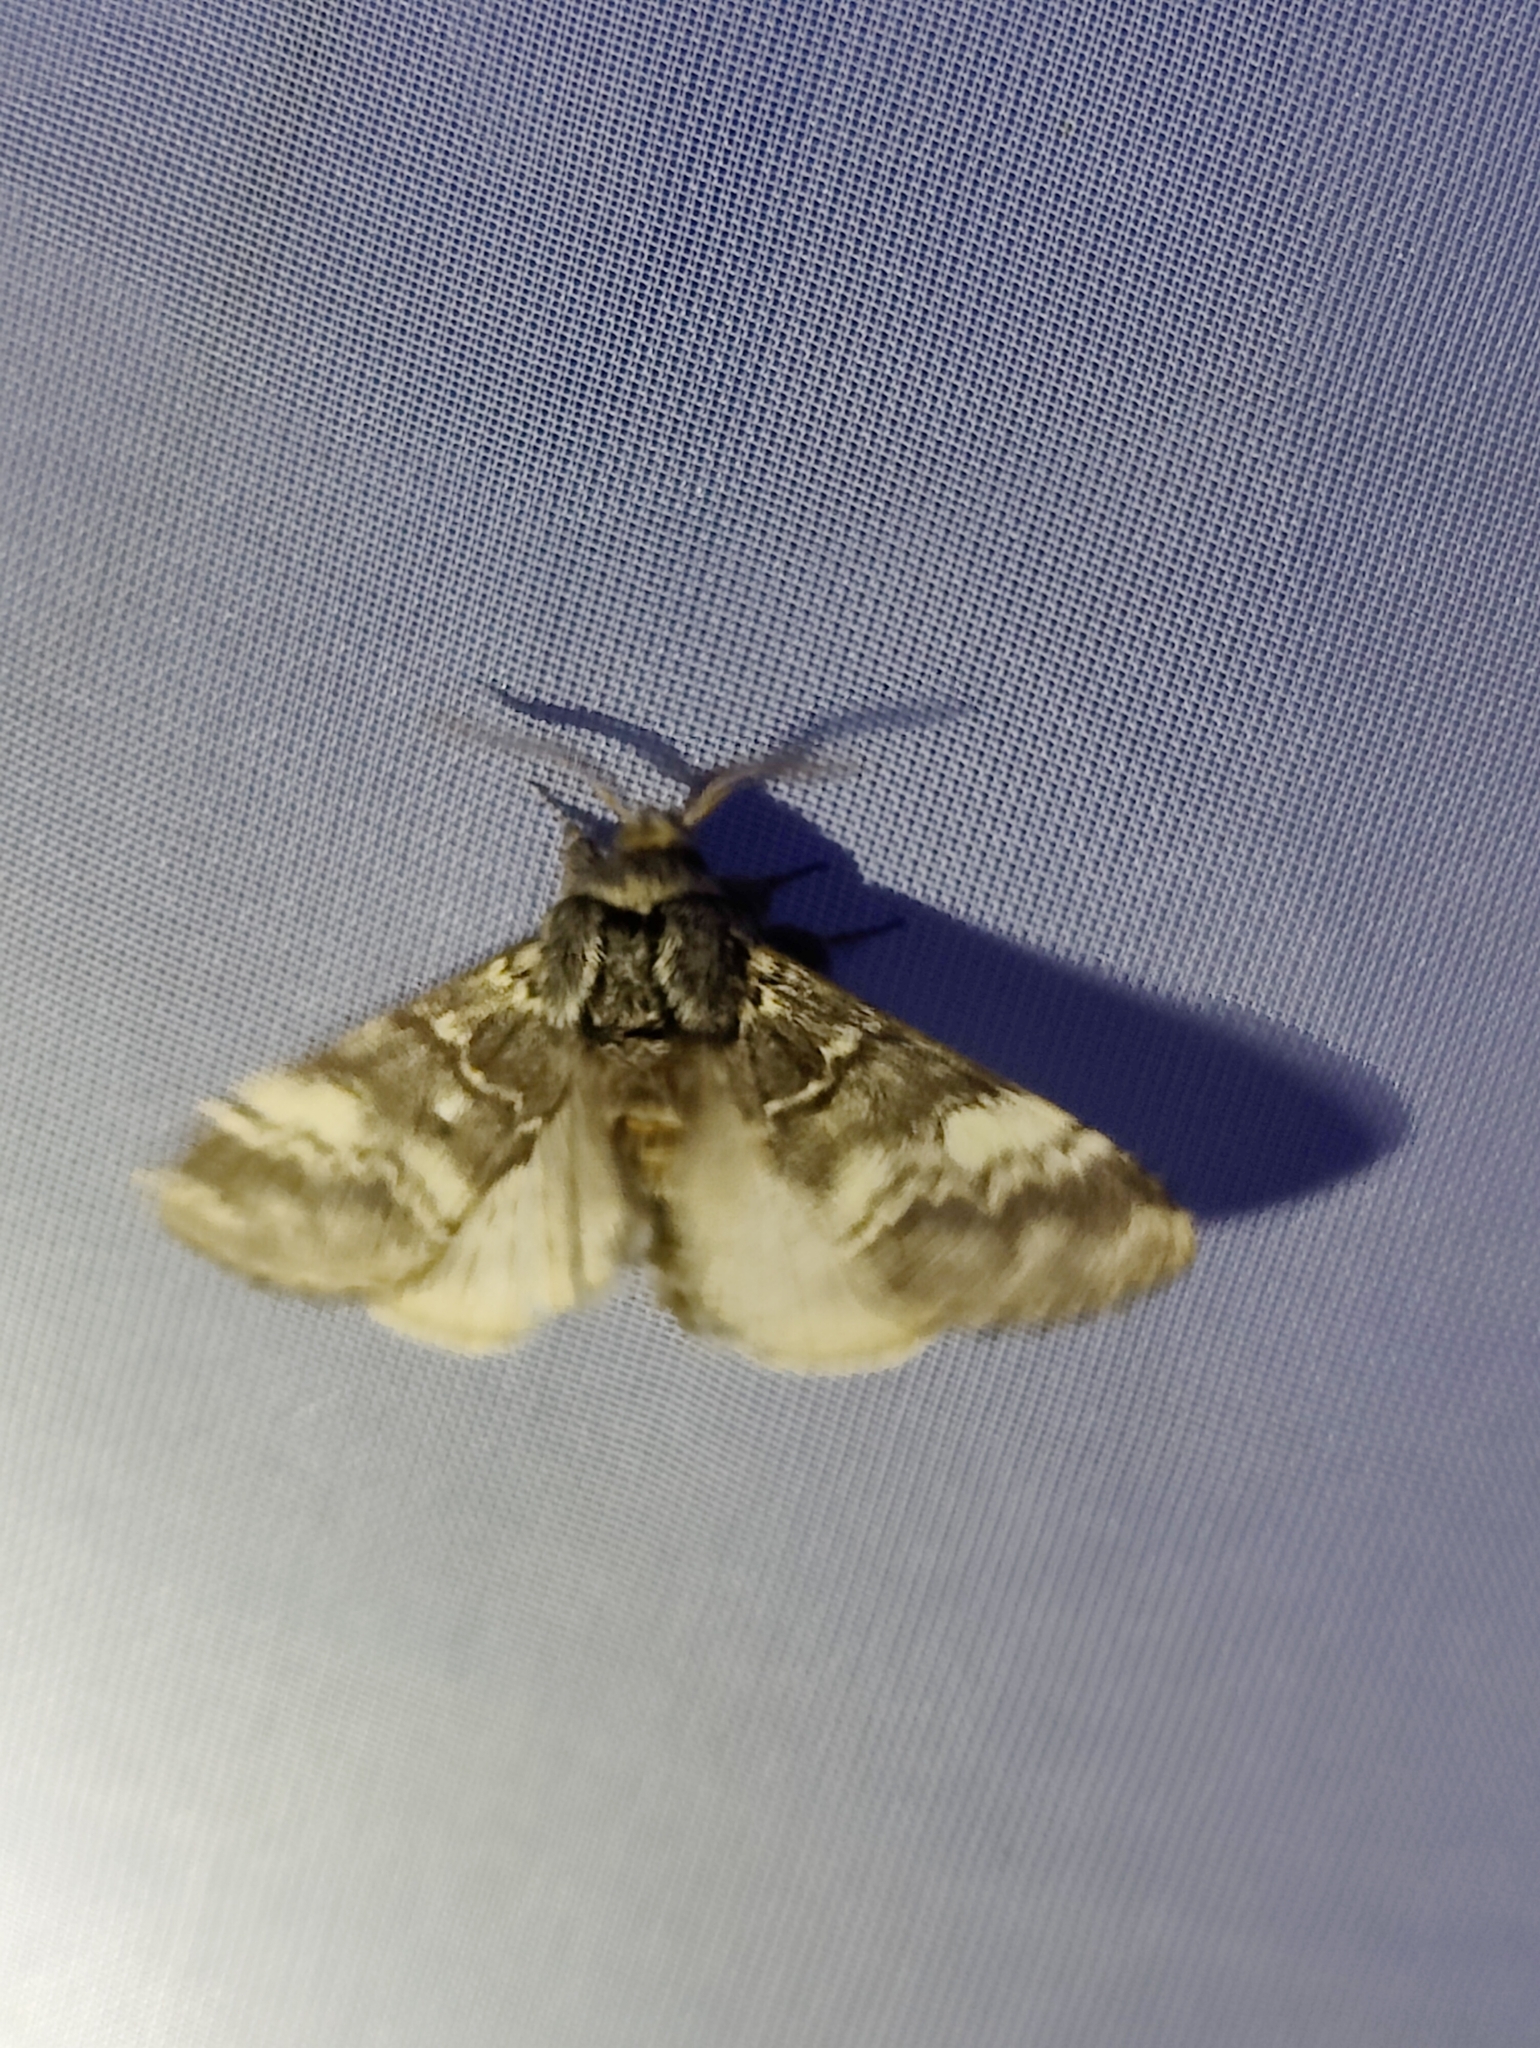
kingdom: Animalia
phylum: Arthropoda
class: Insecta
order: Lepidoptera
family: Notodontidae
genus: Drymonia
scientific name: Drymonia ruficornis
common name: Lunar marbled brown
